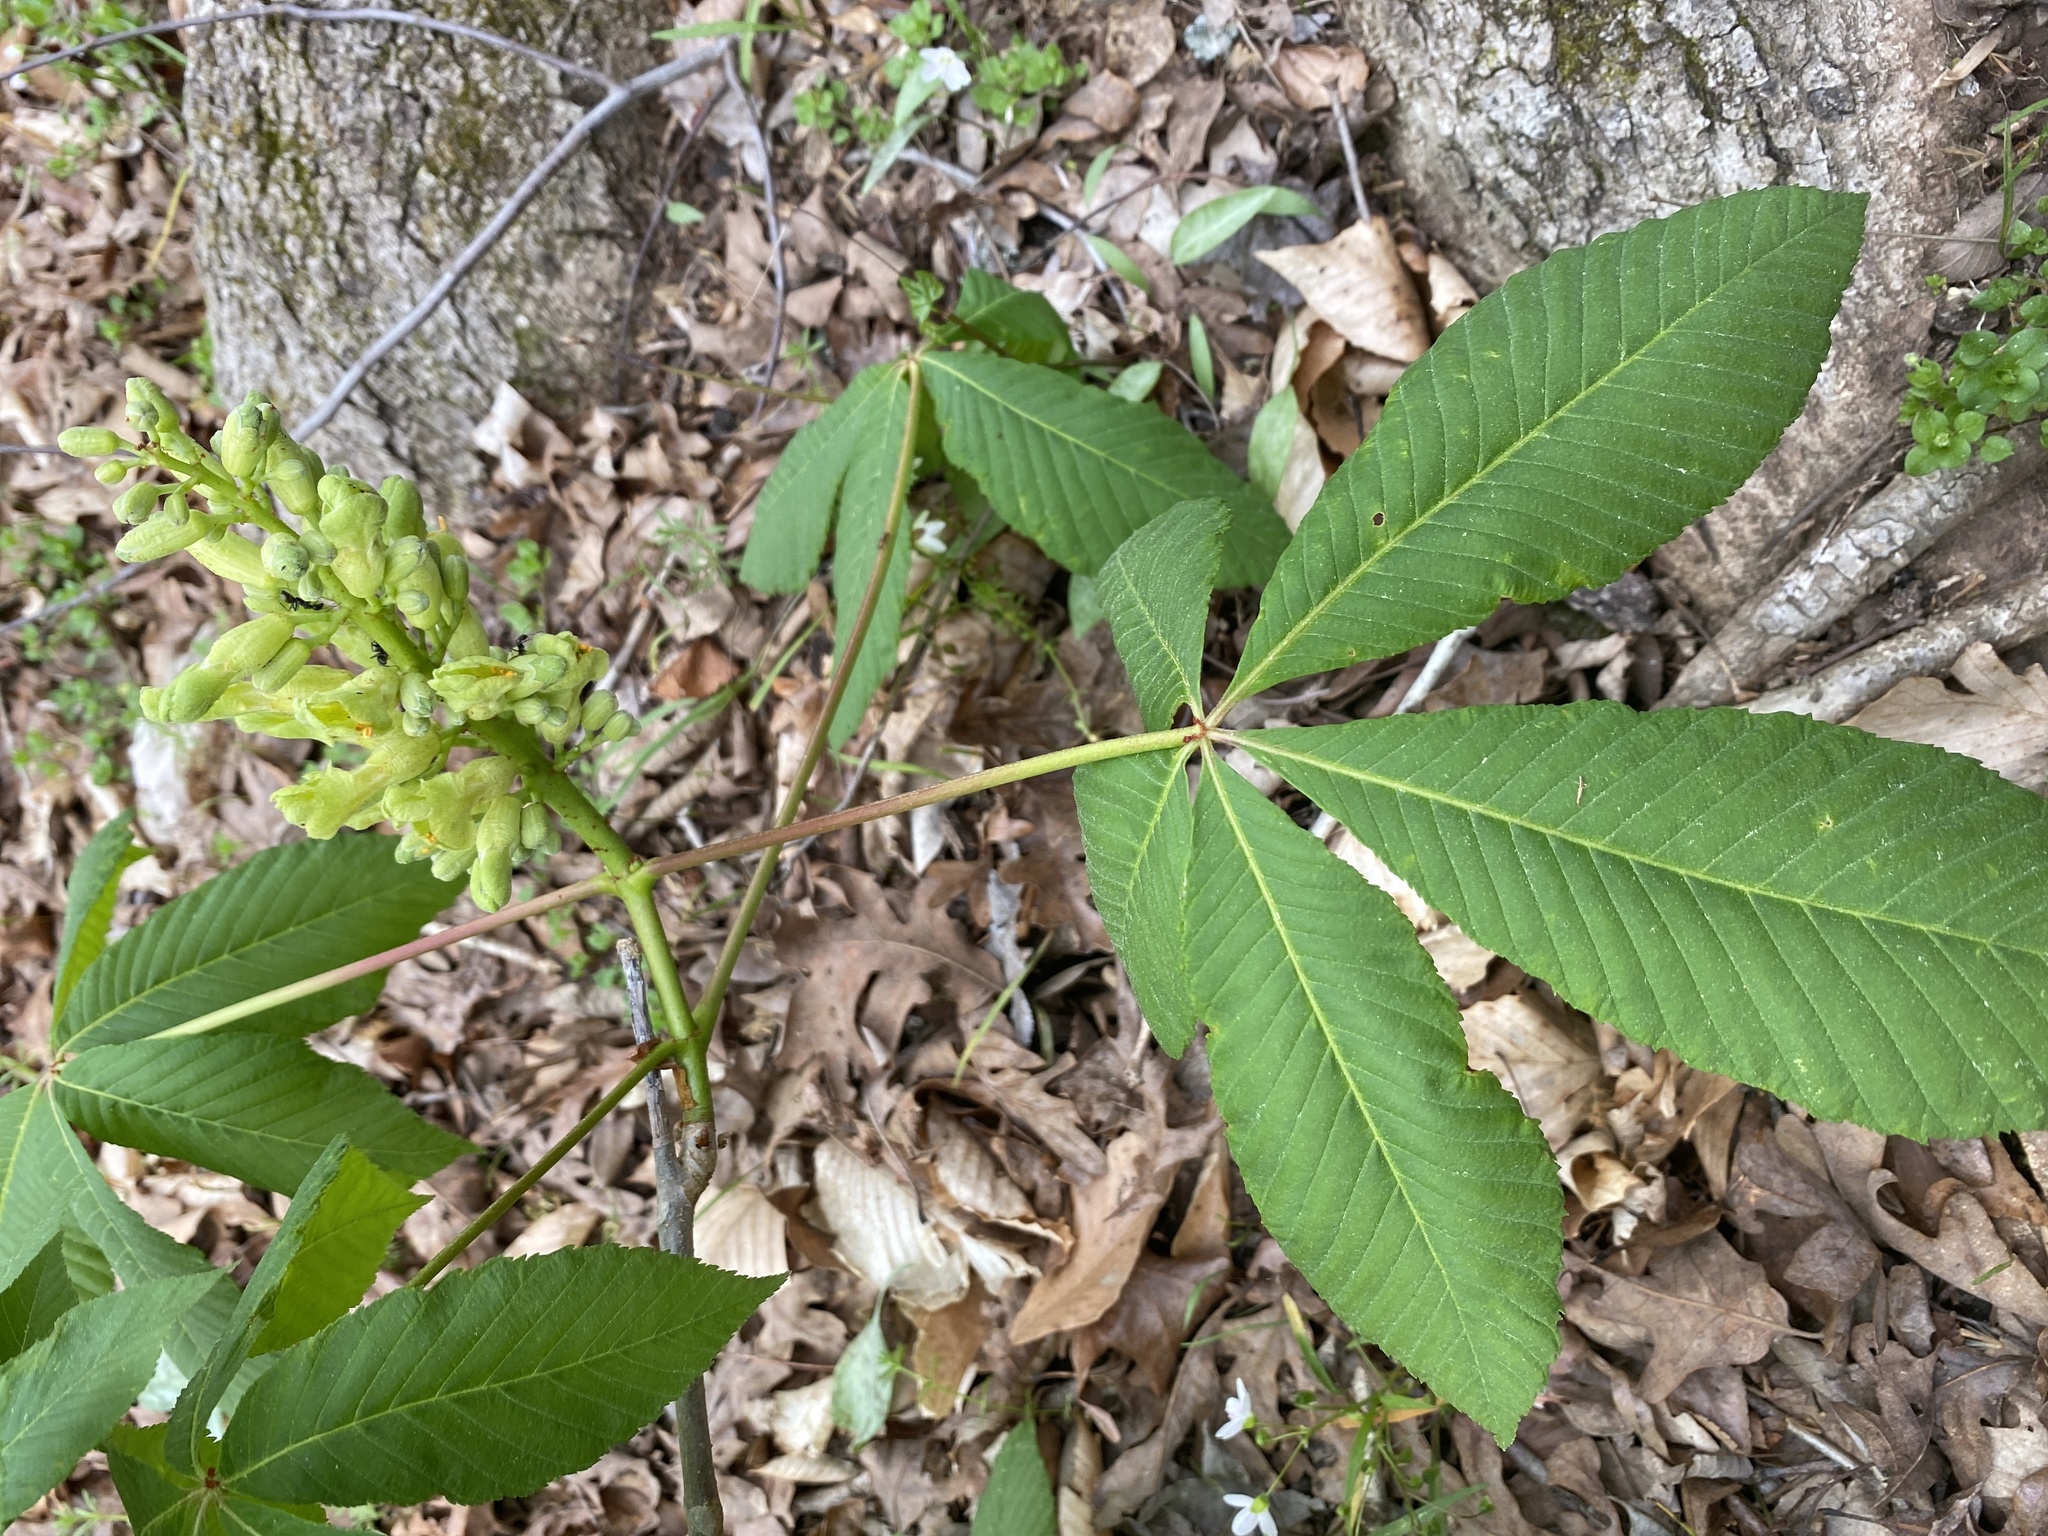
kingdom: Plantae
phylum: Tracheophyta
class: Magnoliopsida
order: Sapindales
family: Sapindaceae
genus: Aesculus
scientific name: Aesculus sylvatica
